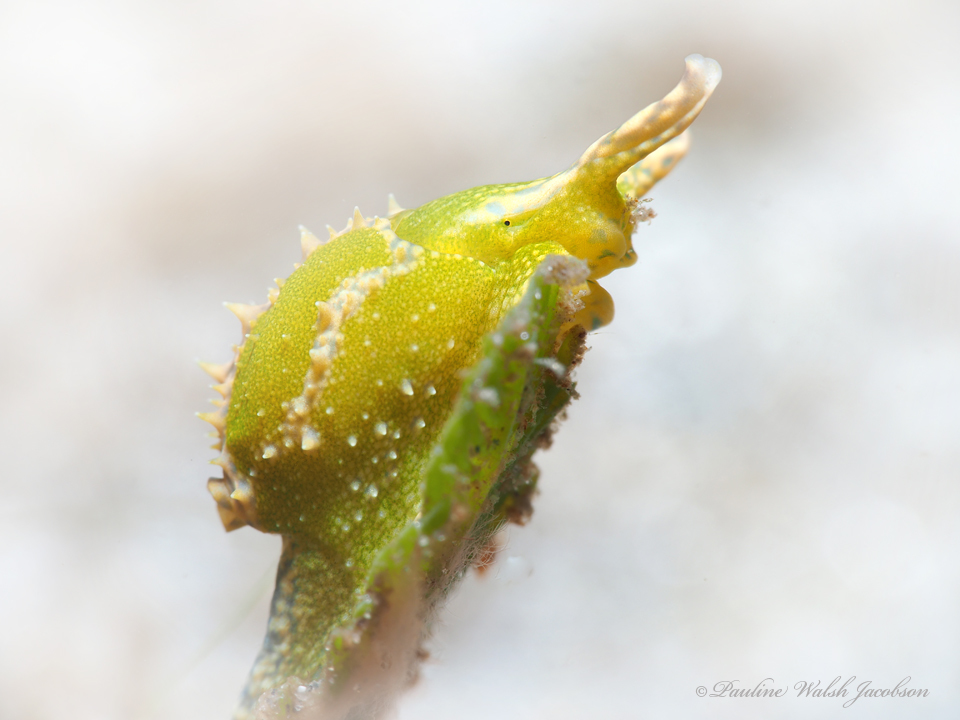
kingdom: Animalia
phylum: Mollusca
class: Gastropoda
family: Oxynoidae
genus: Oxynoe
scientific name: Oxynoe antillarum
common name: Antilles oxynoe
